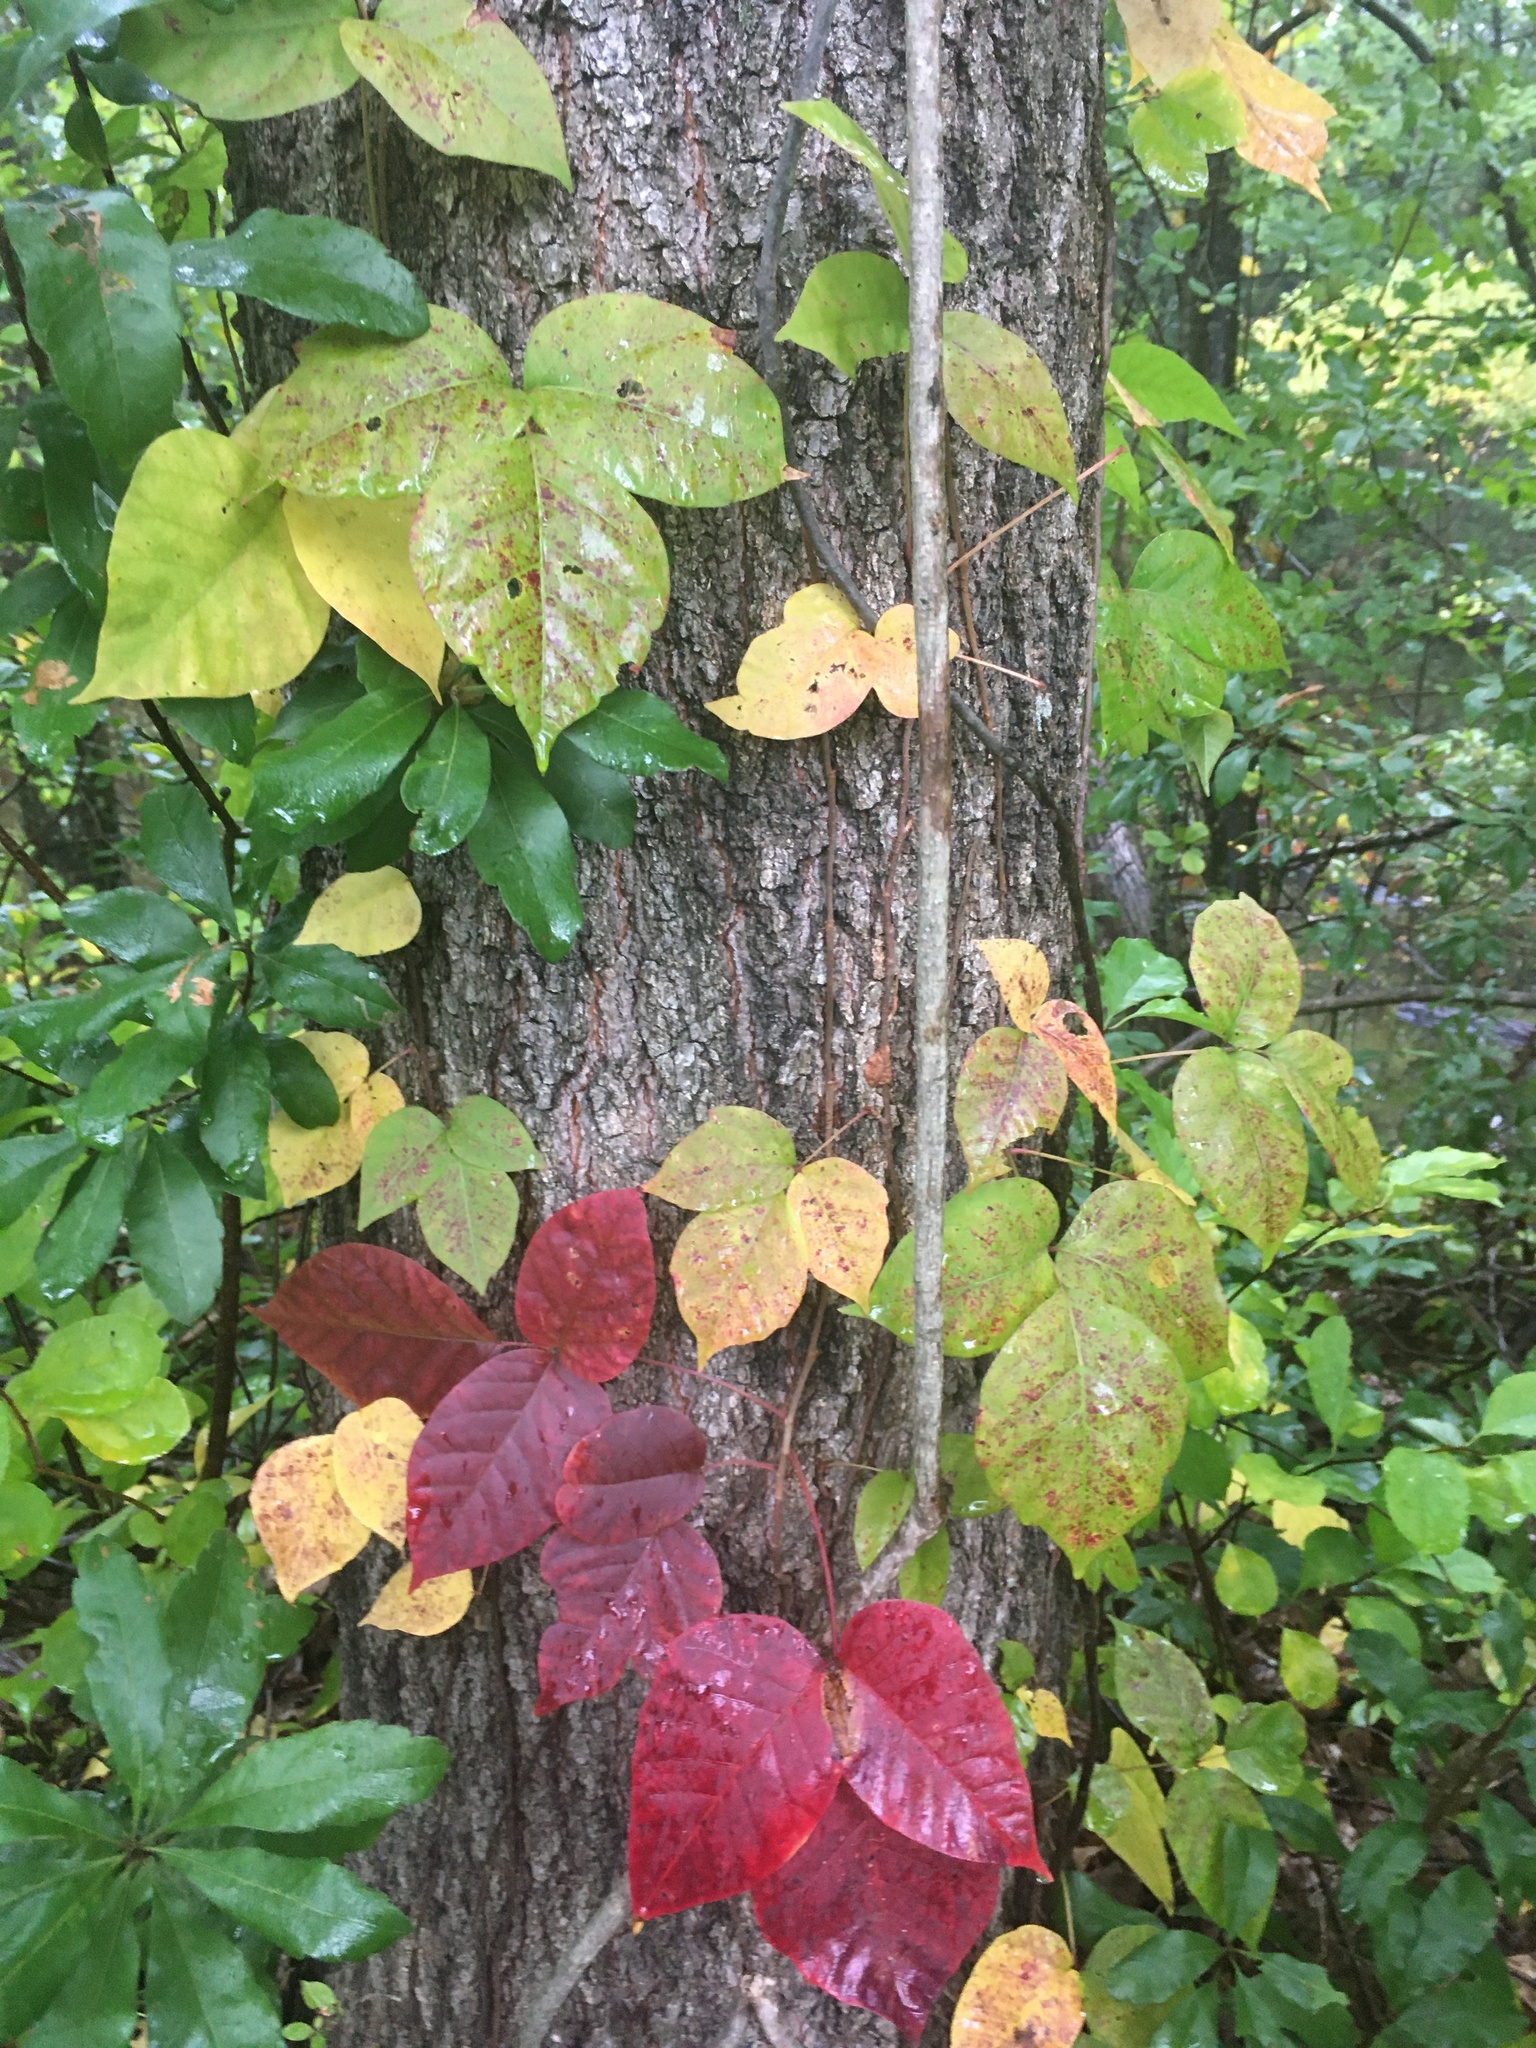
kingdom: Plantae
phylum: Tracheophyta
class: Magnoliopsida
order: Sapindales
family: Anacardiaceae
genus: Toxicodendron
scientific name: Toxicodendron radicans
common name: Poison ivy
